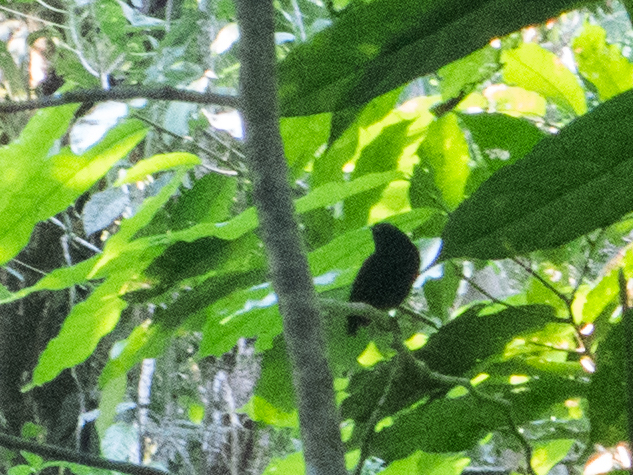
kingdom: Animalia
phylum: Chordata
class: Aves
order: Passeriformes
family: Pipridae
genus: Lepidothrix
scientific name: Lepidothrix coronata
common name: Blue-crowned manakin
